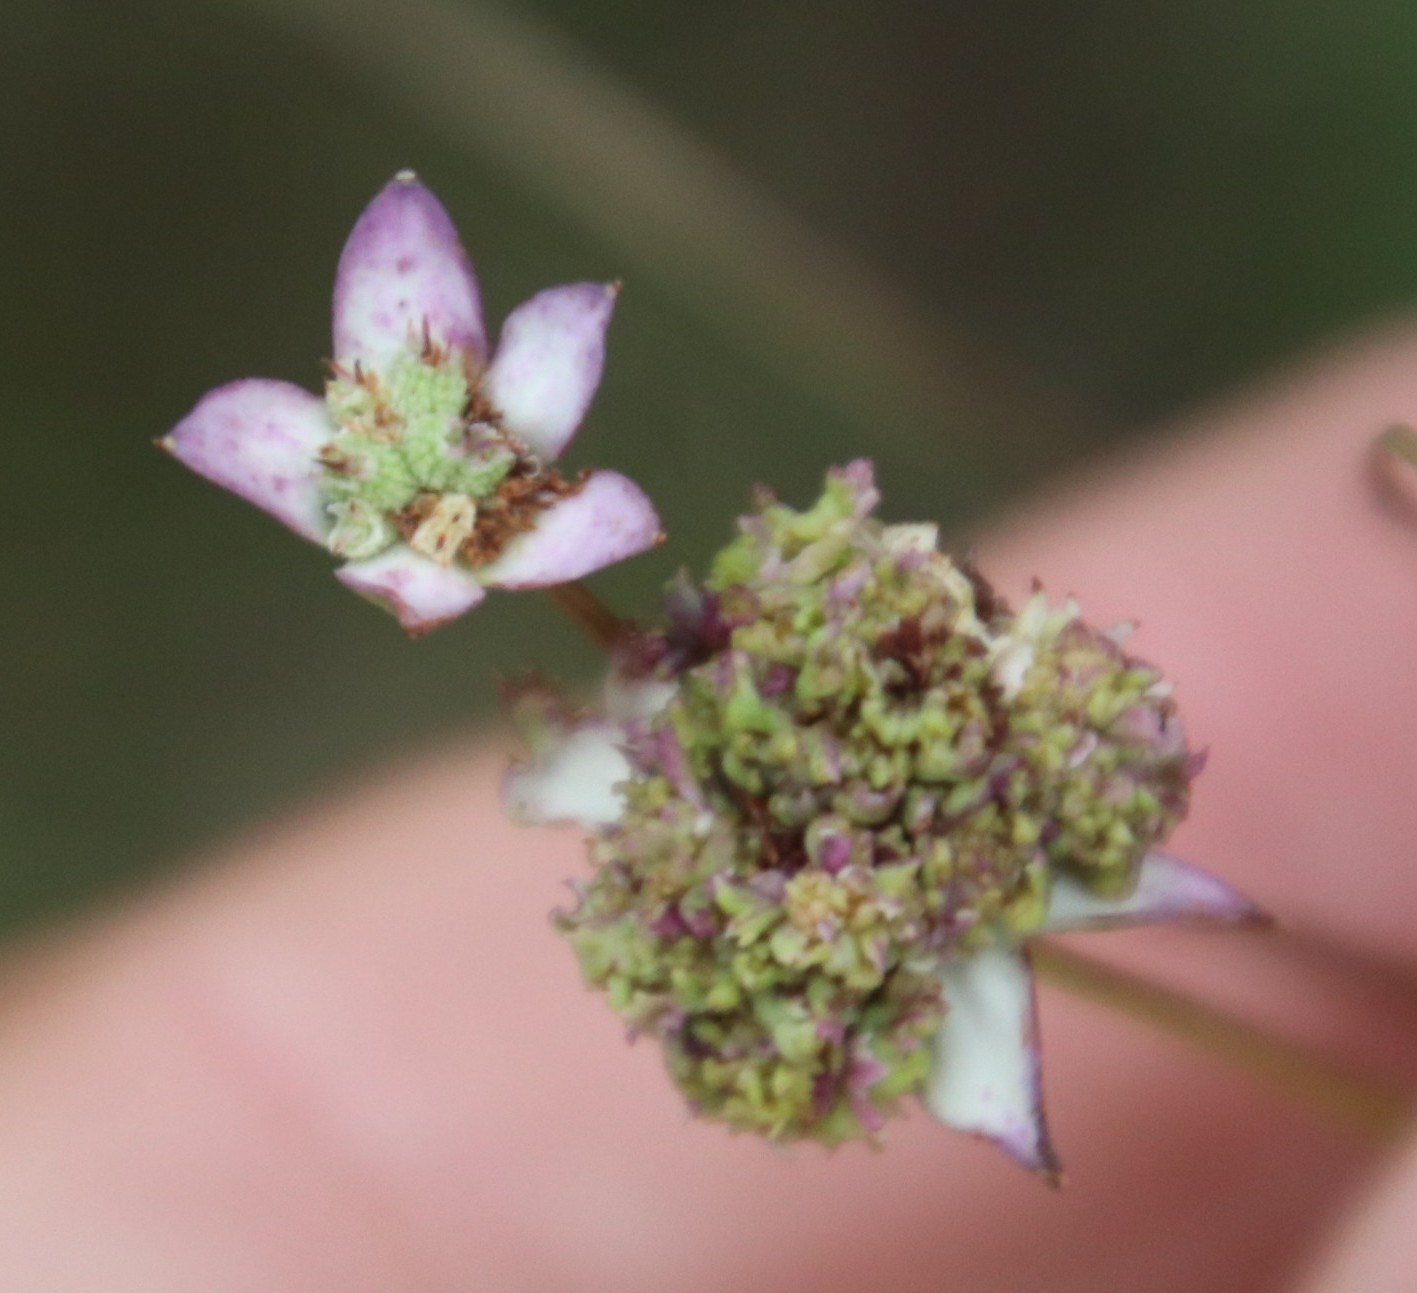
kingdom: Plantae
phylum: Tracheophyta
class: Magnoliopsida
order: Apiales
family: Apiaceae
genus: Alepidea
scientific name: Alepidea natalensis
